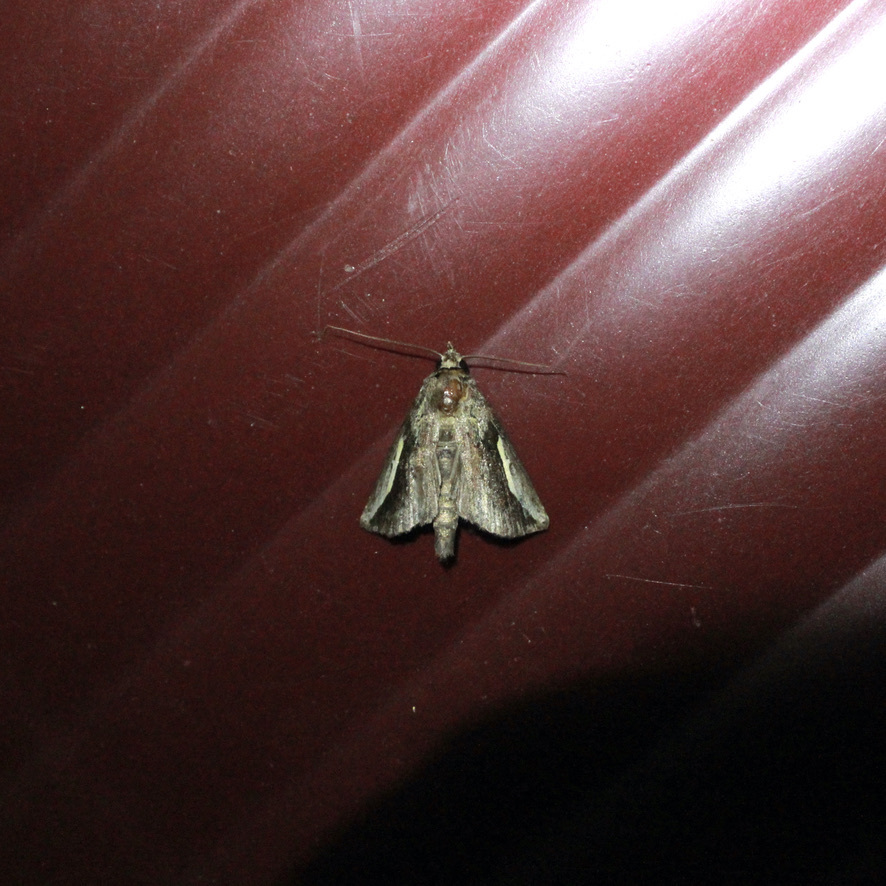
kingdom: Animalia
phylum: Arthropoda
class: Insecta
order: Lepidoptera
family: Notodontidae
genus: Hippia
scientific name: Hippia mumetes
